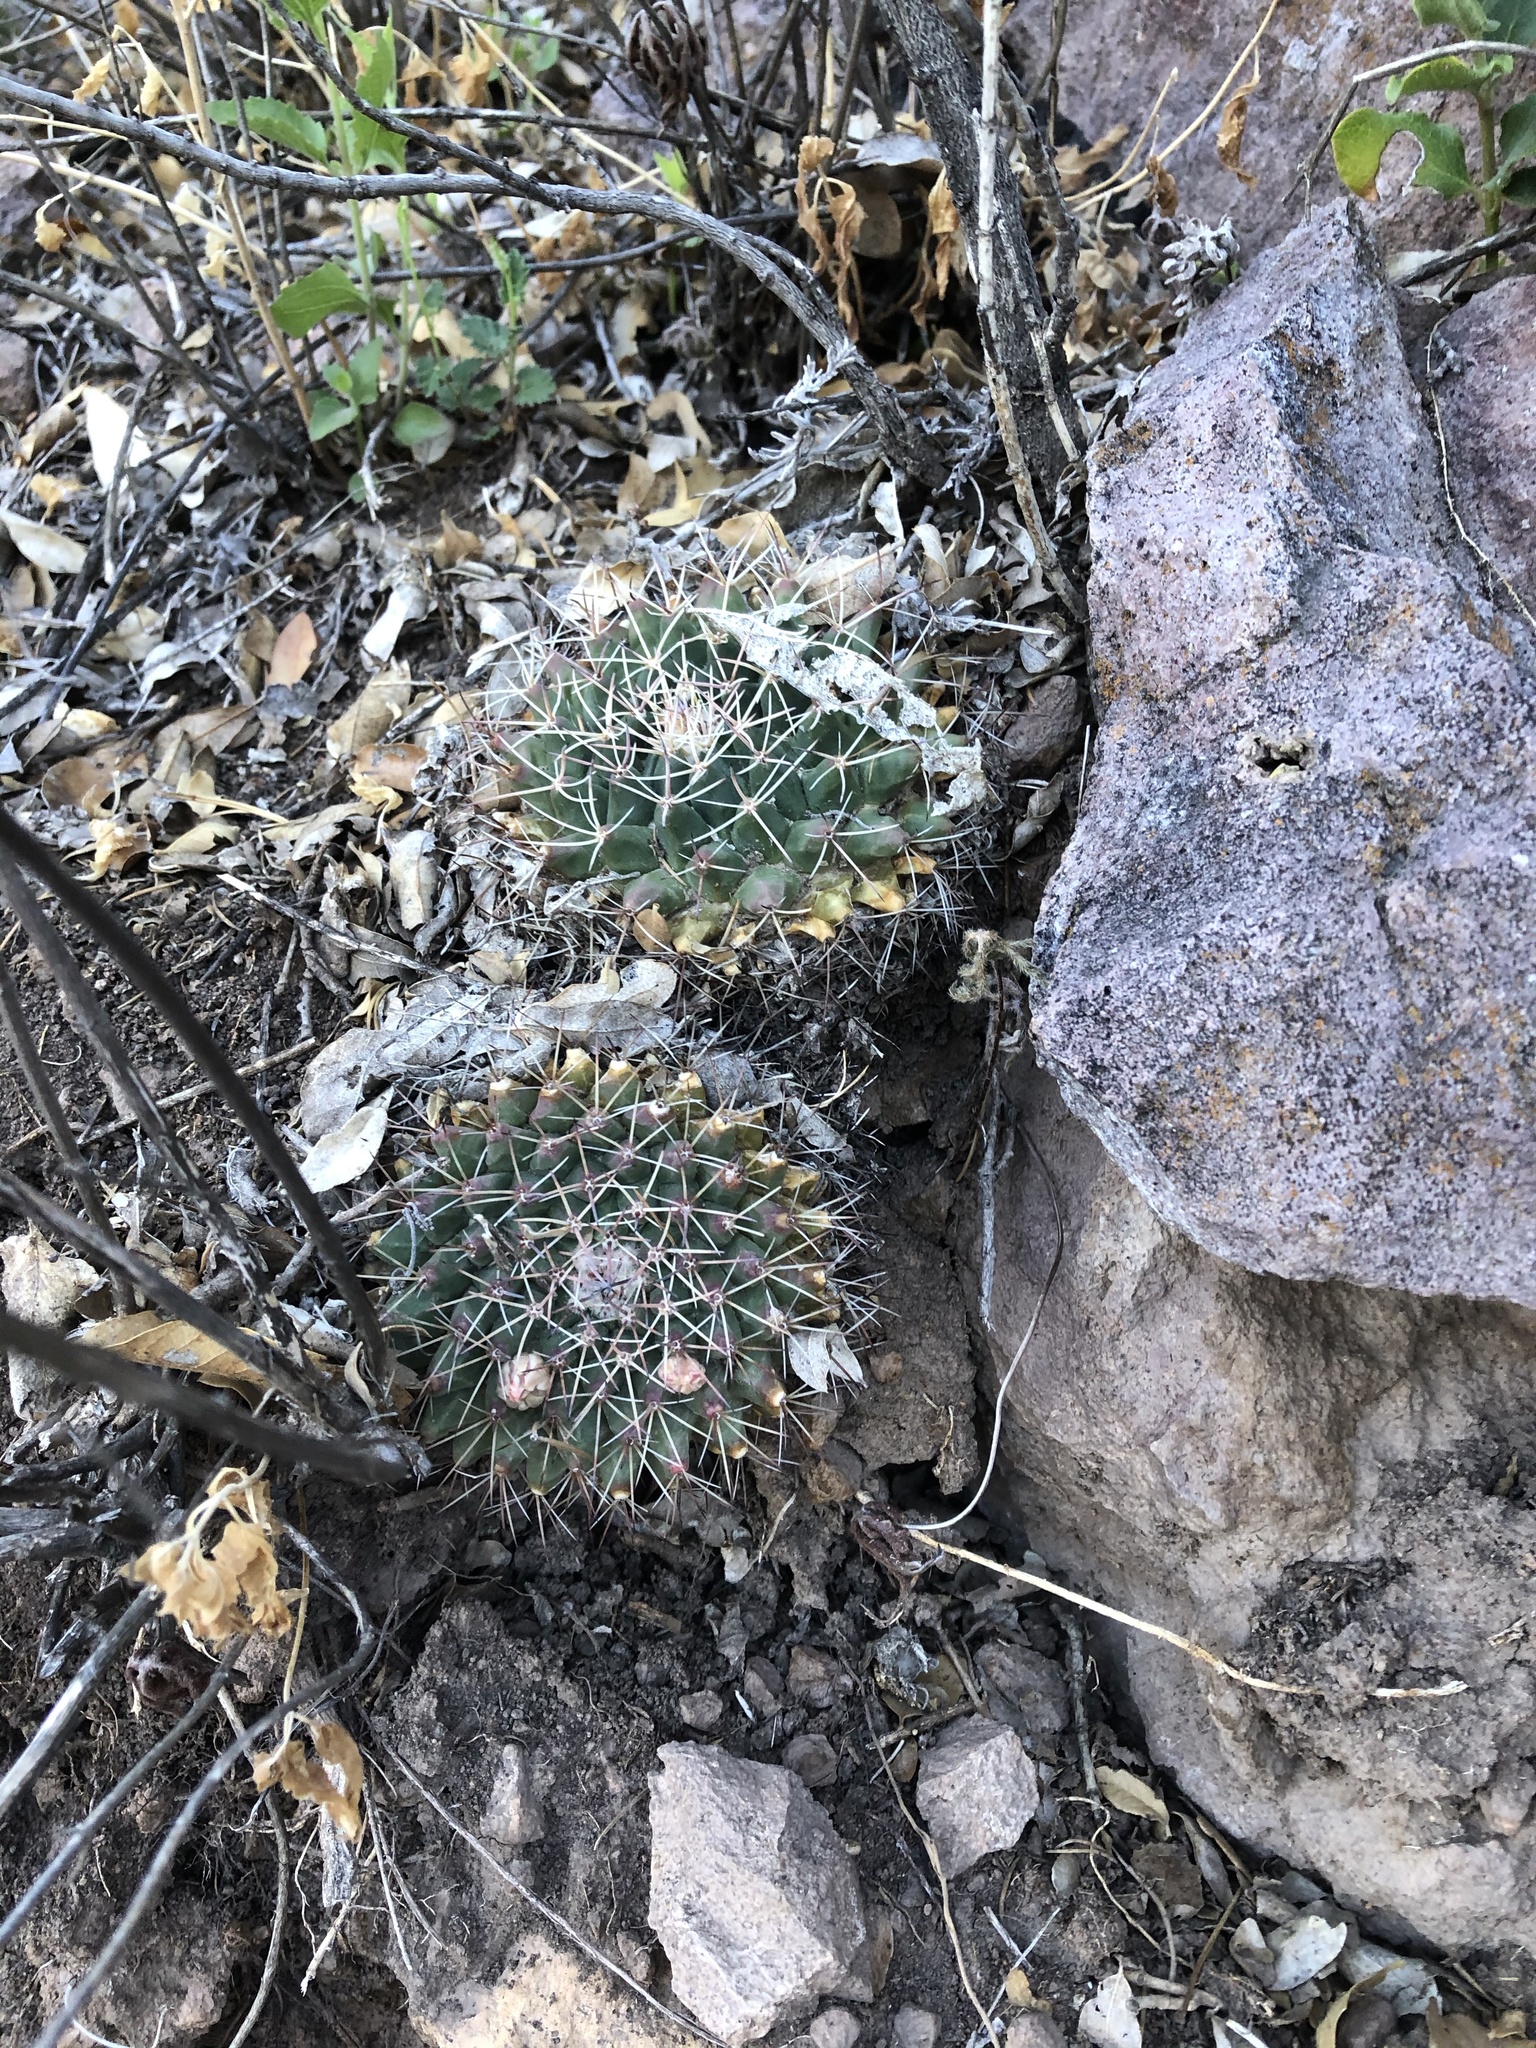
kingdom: Plantae
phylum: Tracheophyta
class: Magnoliopsida
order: Caryophyllales
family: Cactaceae
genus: Mammillaria
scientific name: Mammillaria heyderi
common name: Little nipple cactus
